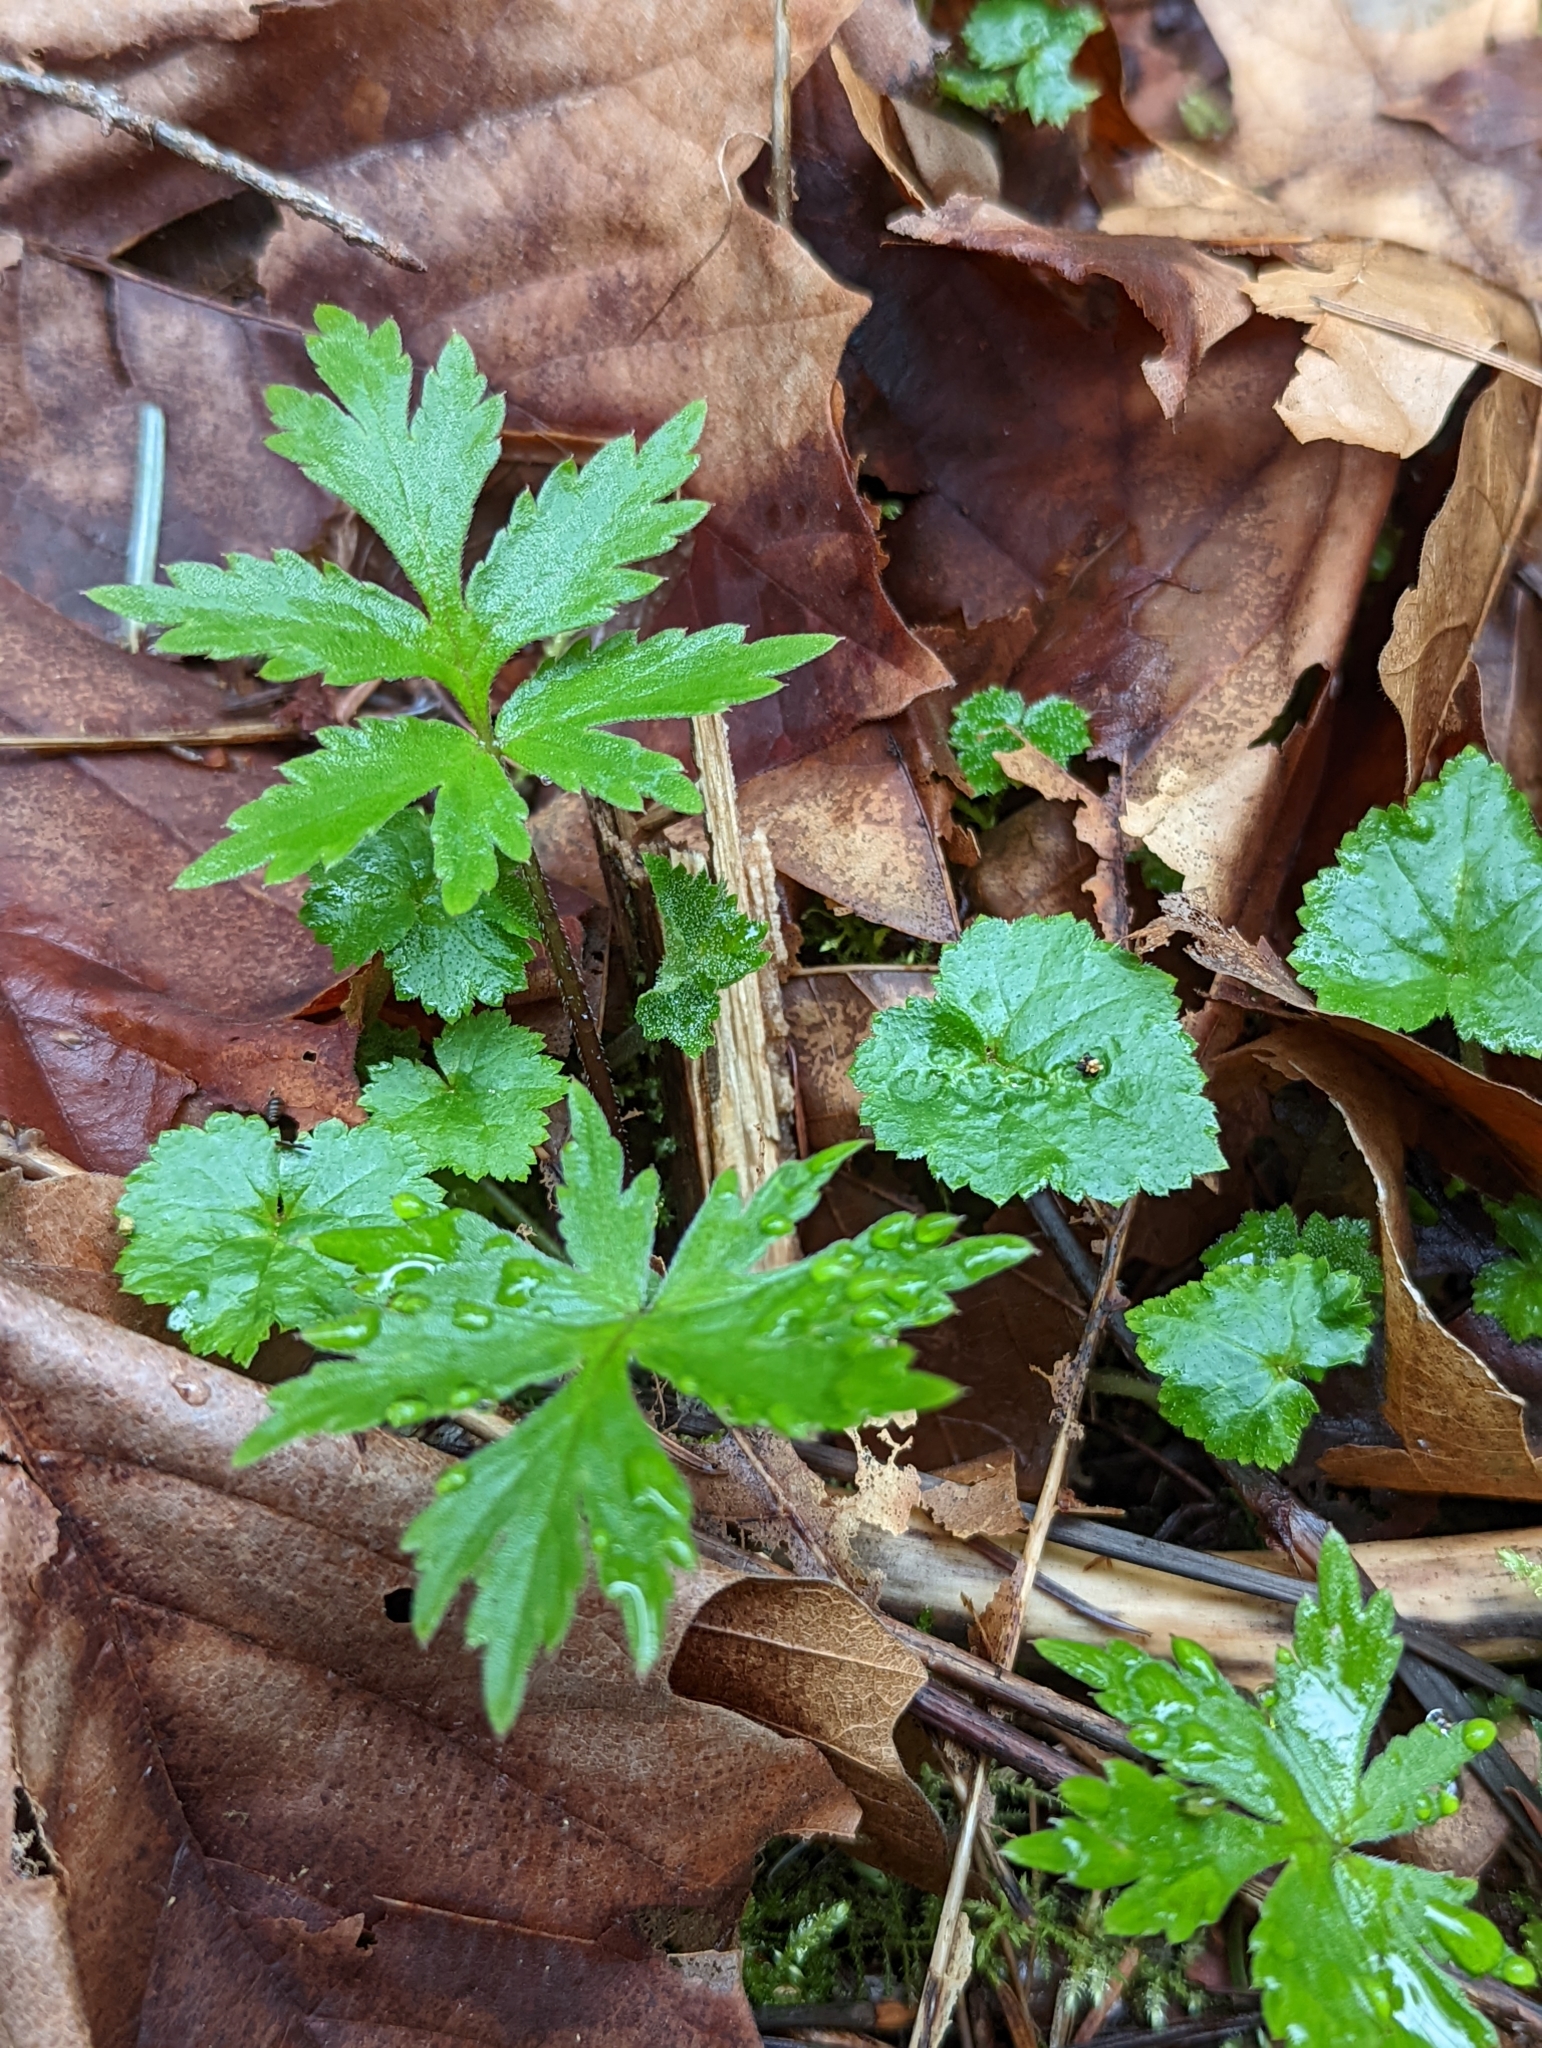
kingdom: Plantae
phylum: Tracheophyta
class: Magnoliopsida
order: Boraginales
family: Hydrophyllaceae
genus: Hydrophyllum
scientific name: Hydrophyllum tenuipes
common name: Pacific waterleaf
